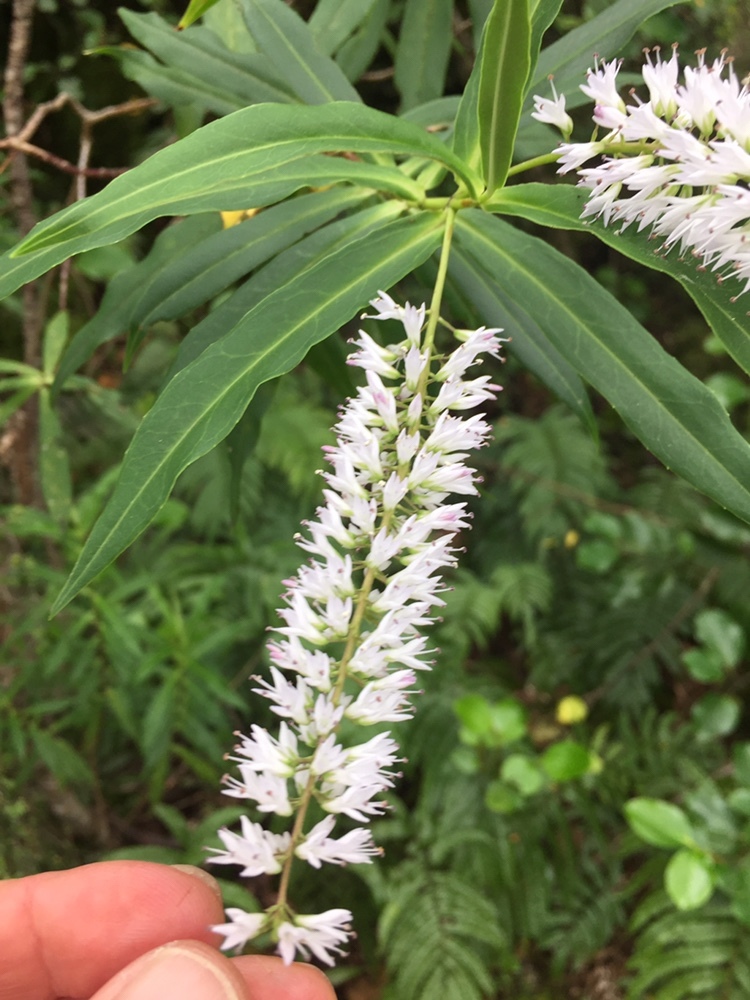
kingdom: Plantae
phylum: Tracheophyta
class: Magnoliopsida
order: Lamiales
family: Plantaginaceae
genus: Veronica
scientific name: Veronica salicifolia
